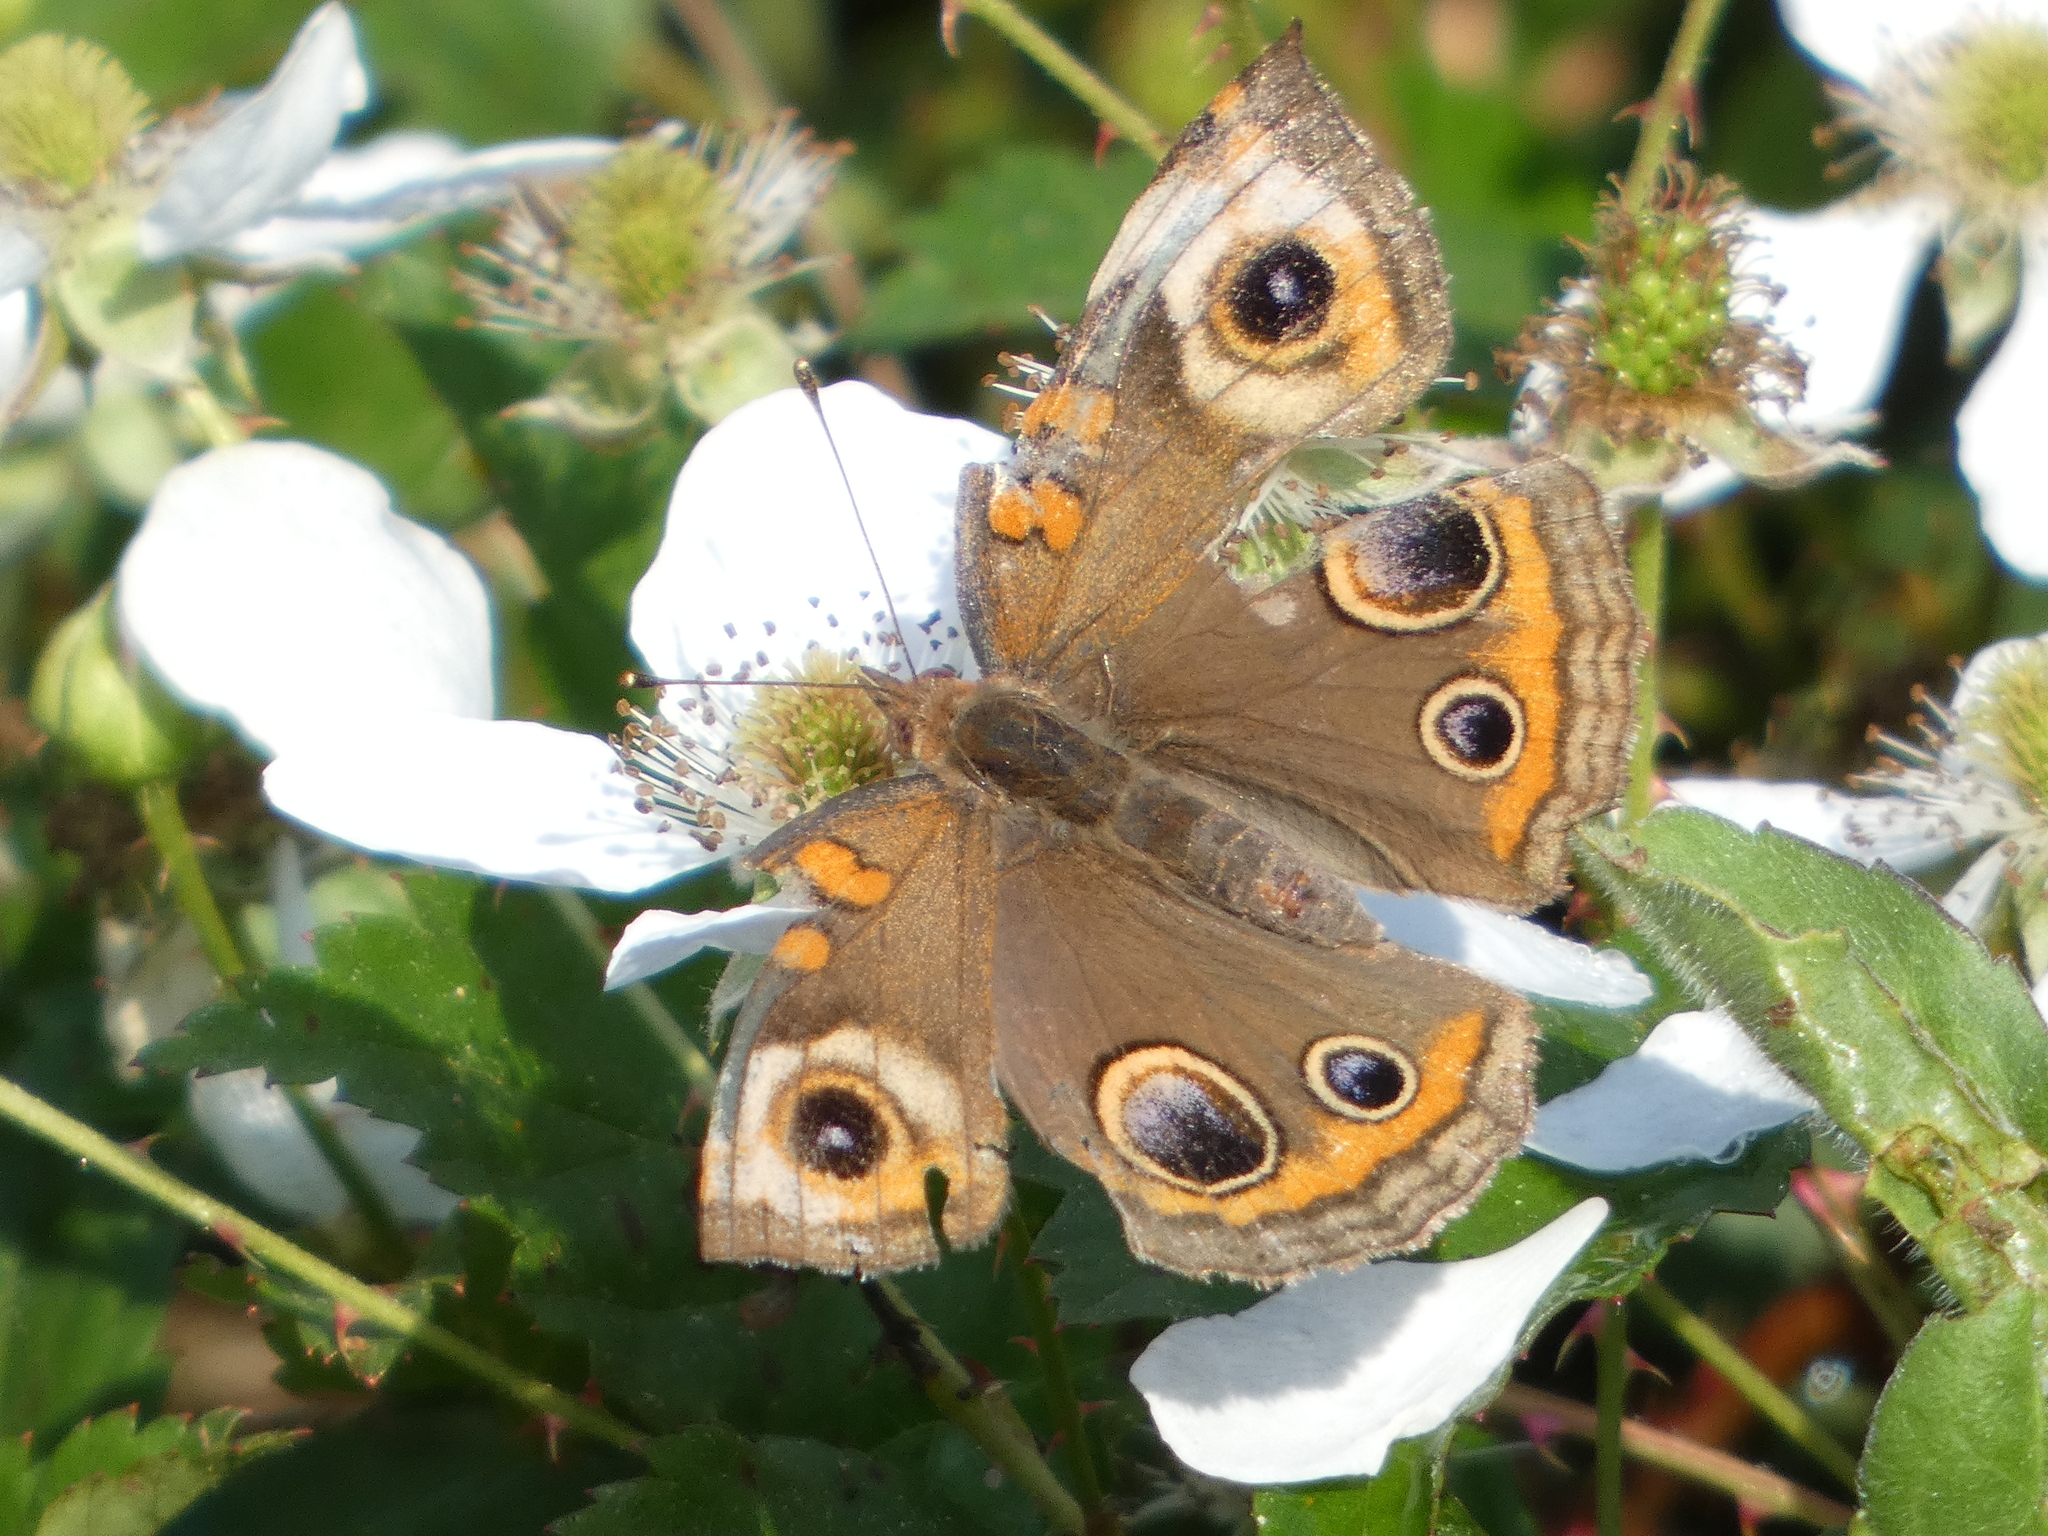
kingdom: Animalia
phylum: Arthropoda
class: Insecta
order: Lepidoptera
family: Nymphalidae
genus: Junonia
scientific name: Junonia coenia
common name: Common buckeye
